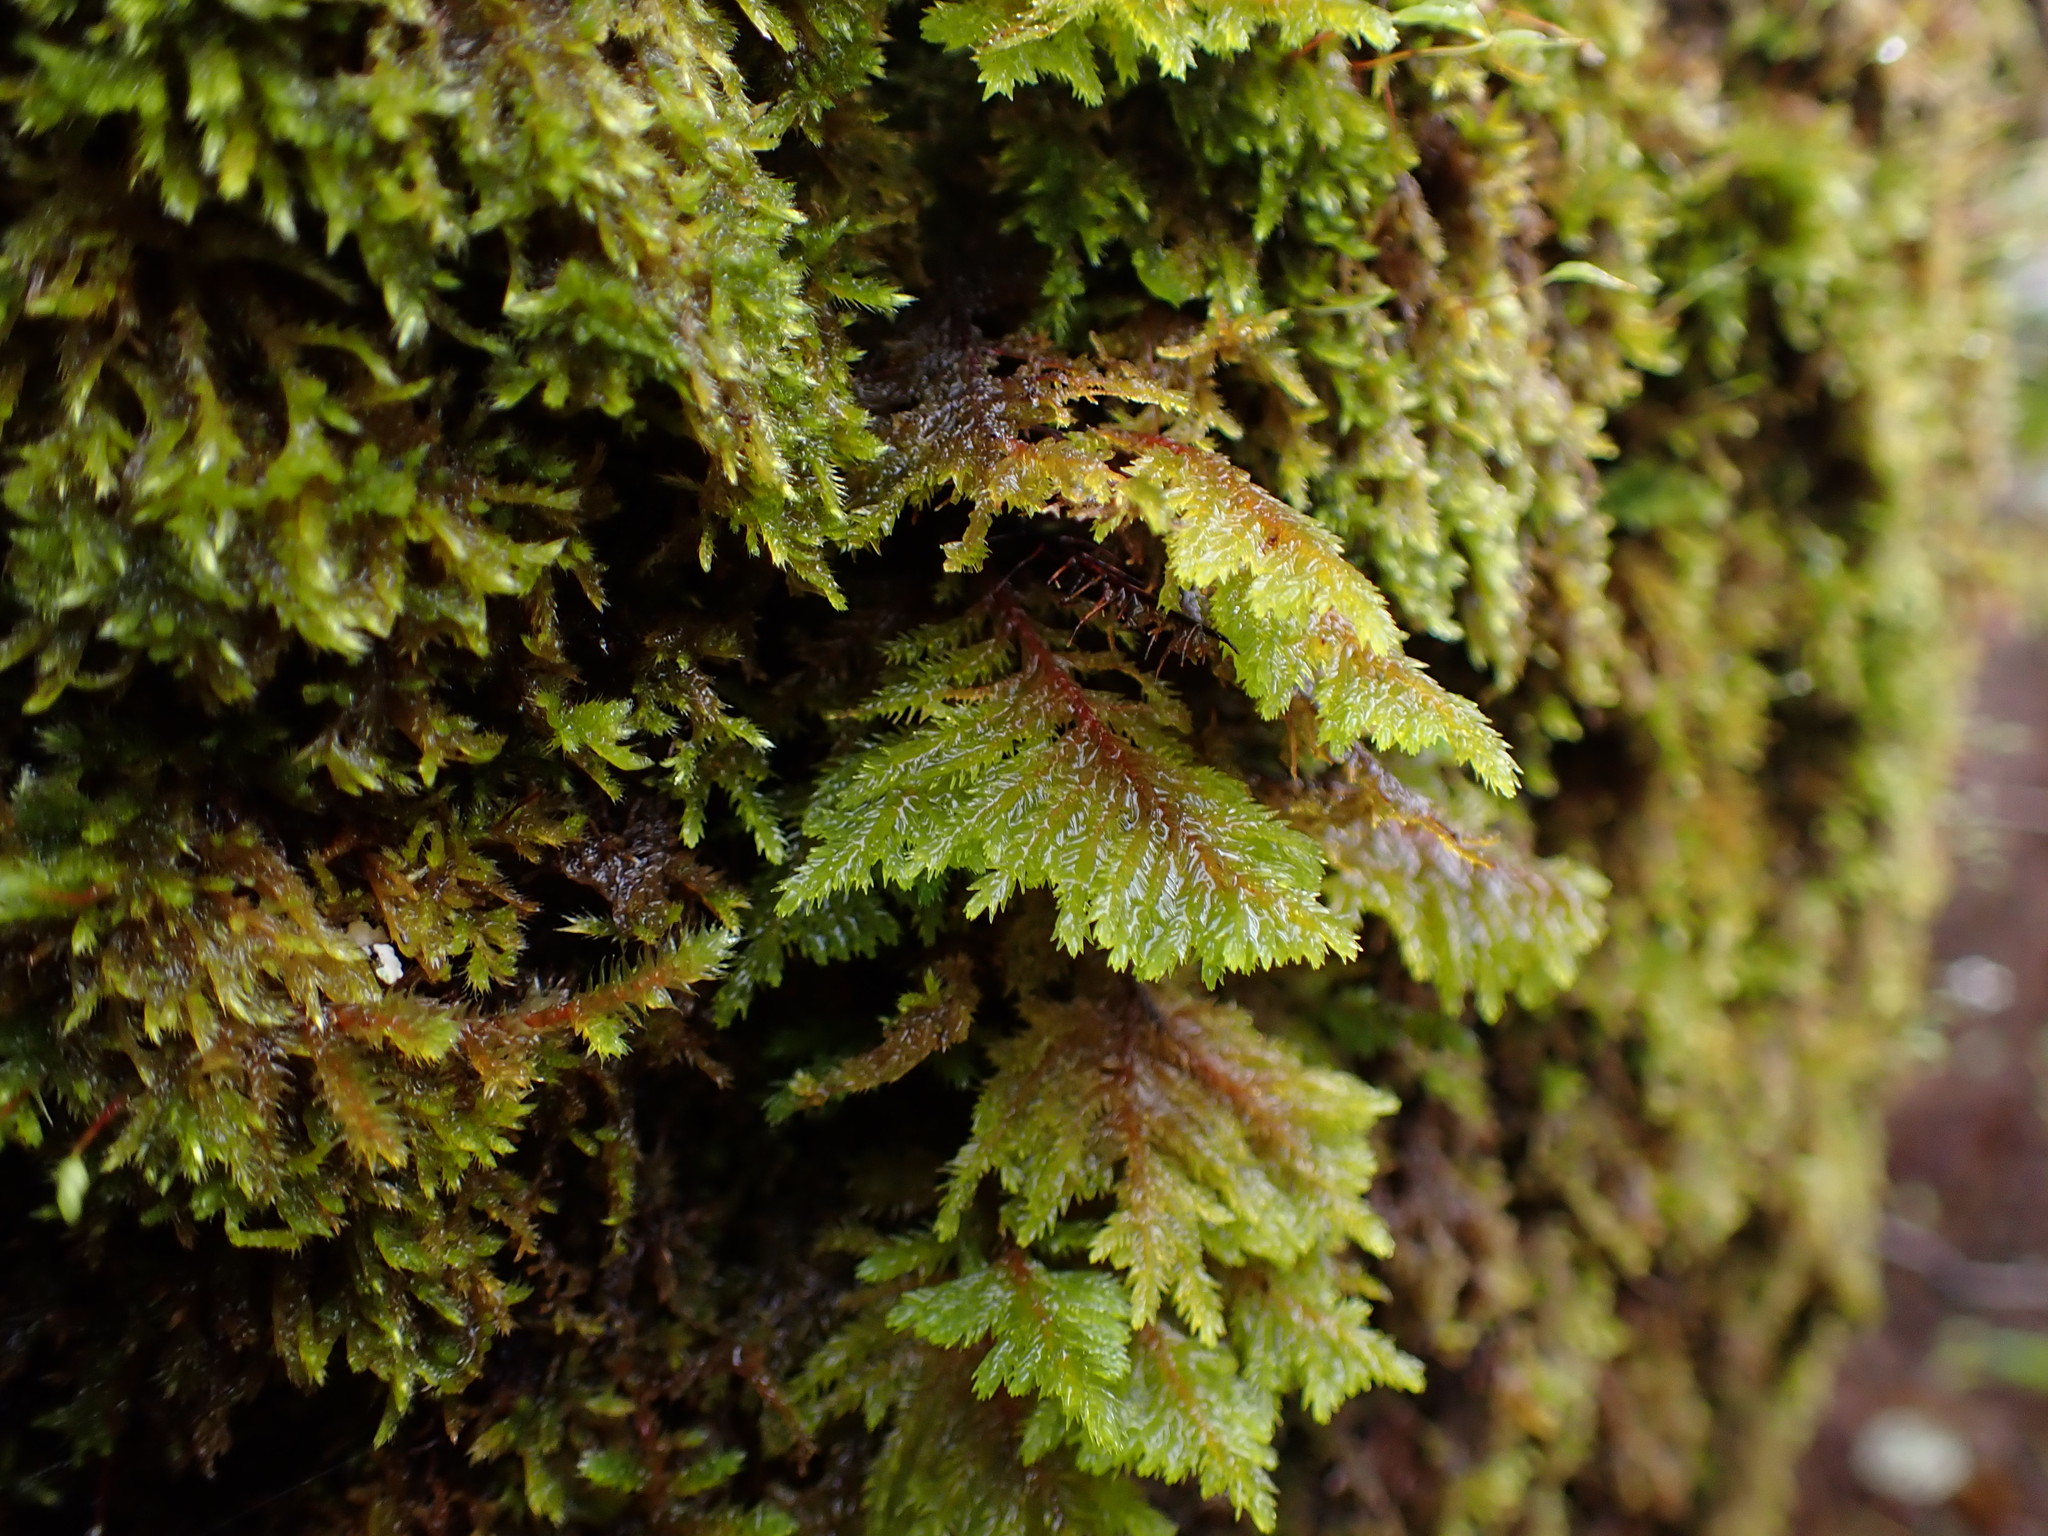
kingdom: Plantae
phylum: Bryophyta
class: Bryopsida
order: Hypnales
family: Cryphaeaceae
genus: Dendroalsia
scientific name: Dendroalsia abietina
